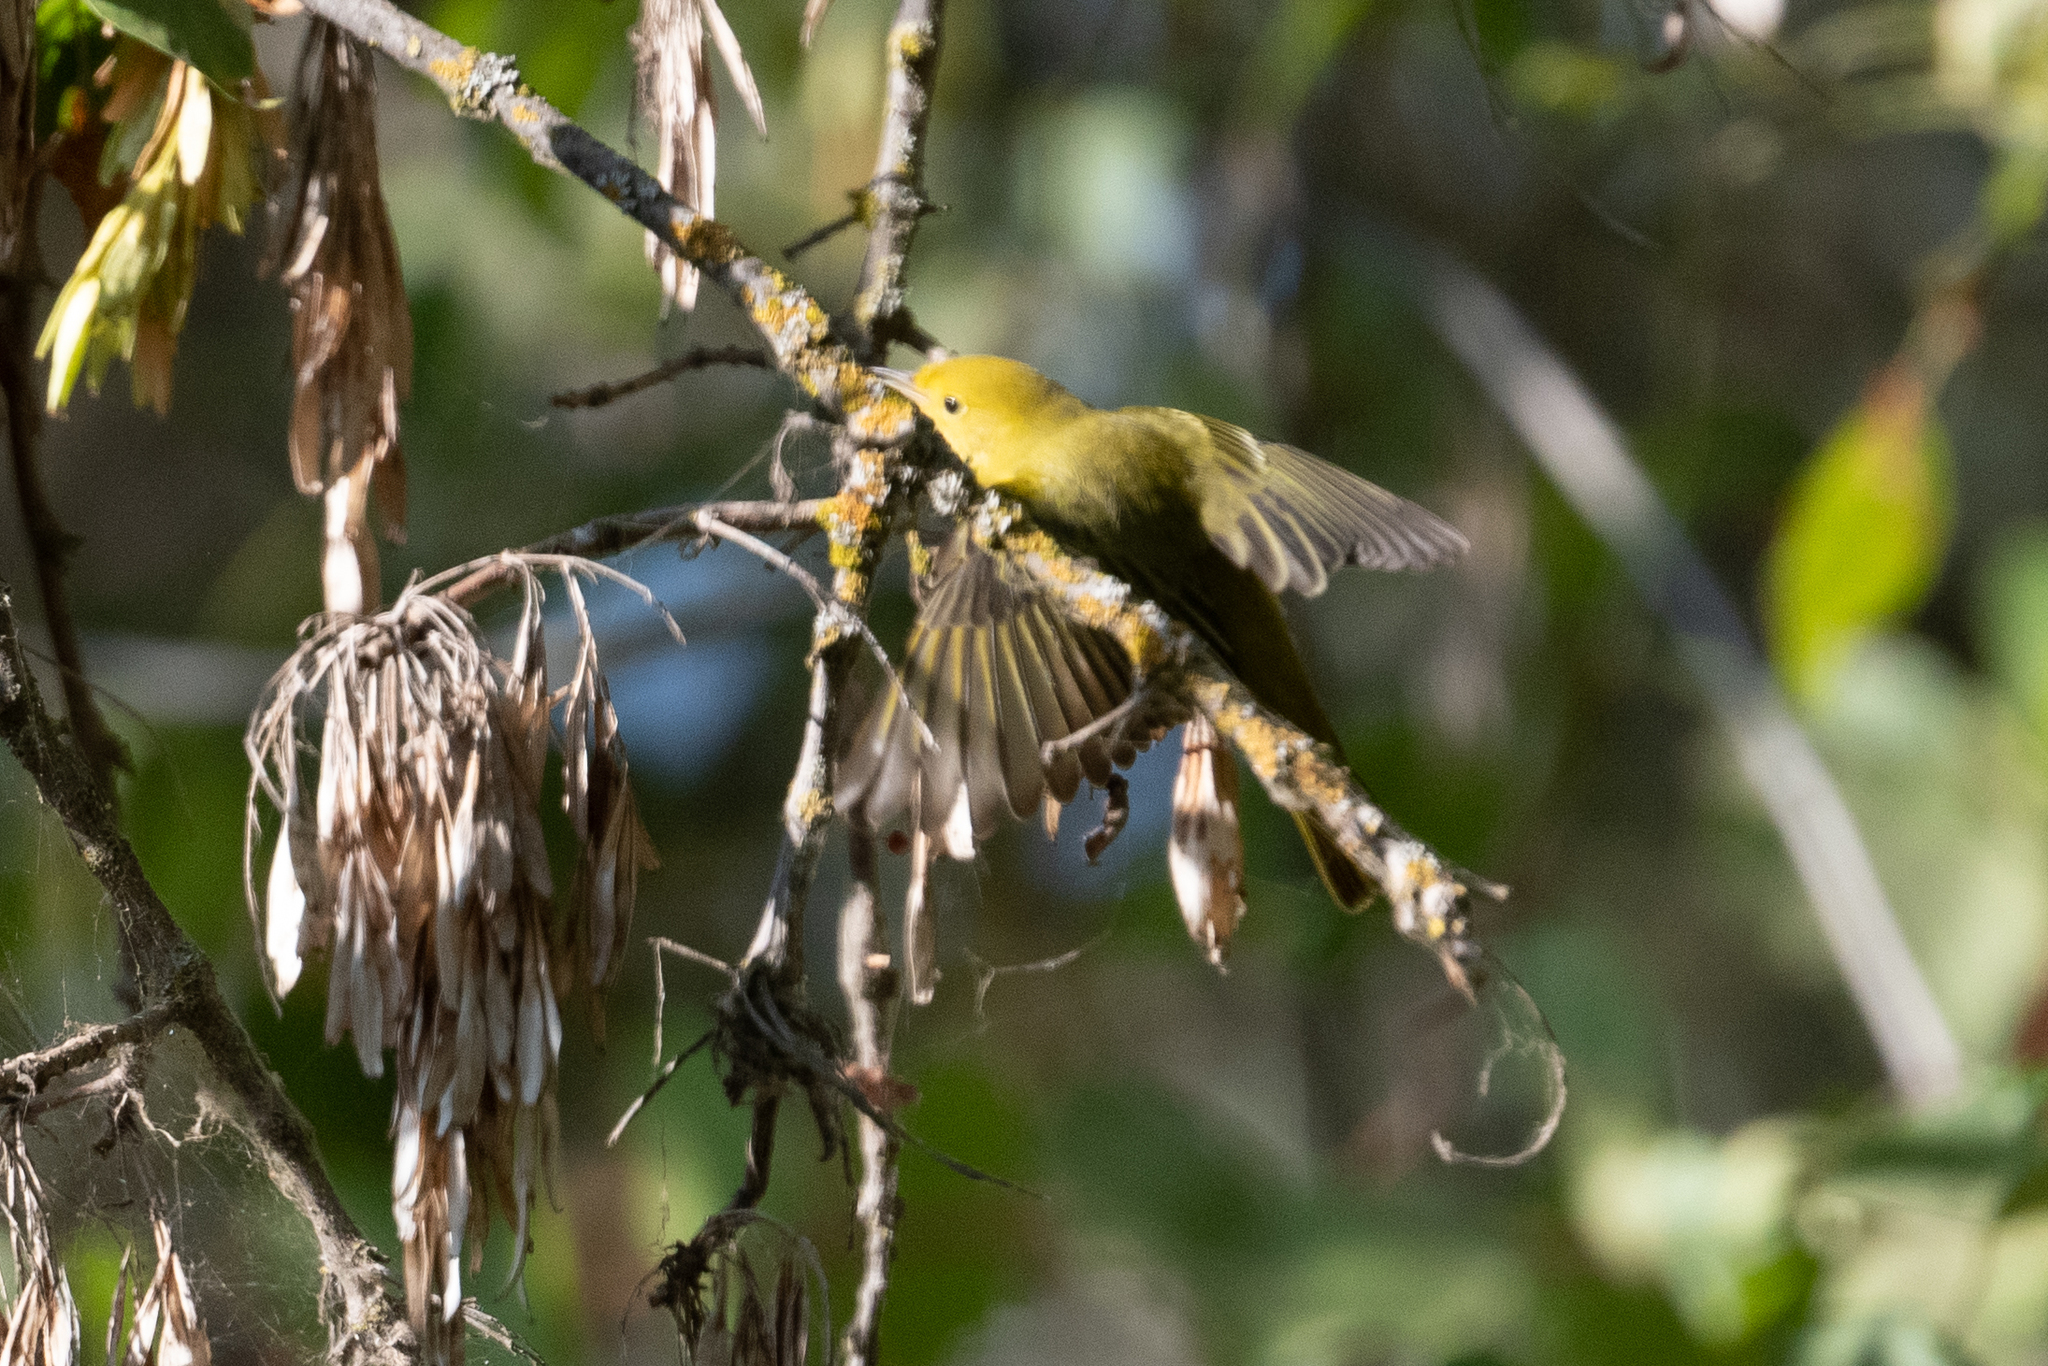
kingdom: Animalia
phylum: Chordata
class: Aves
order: Passeriformes
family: Parulidae
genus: Setophaga
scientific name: Setophaga petechia
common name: Yellow warbler
